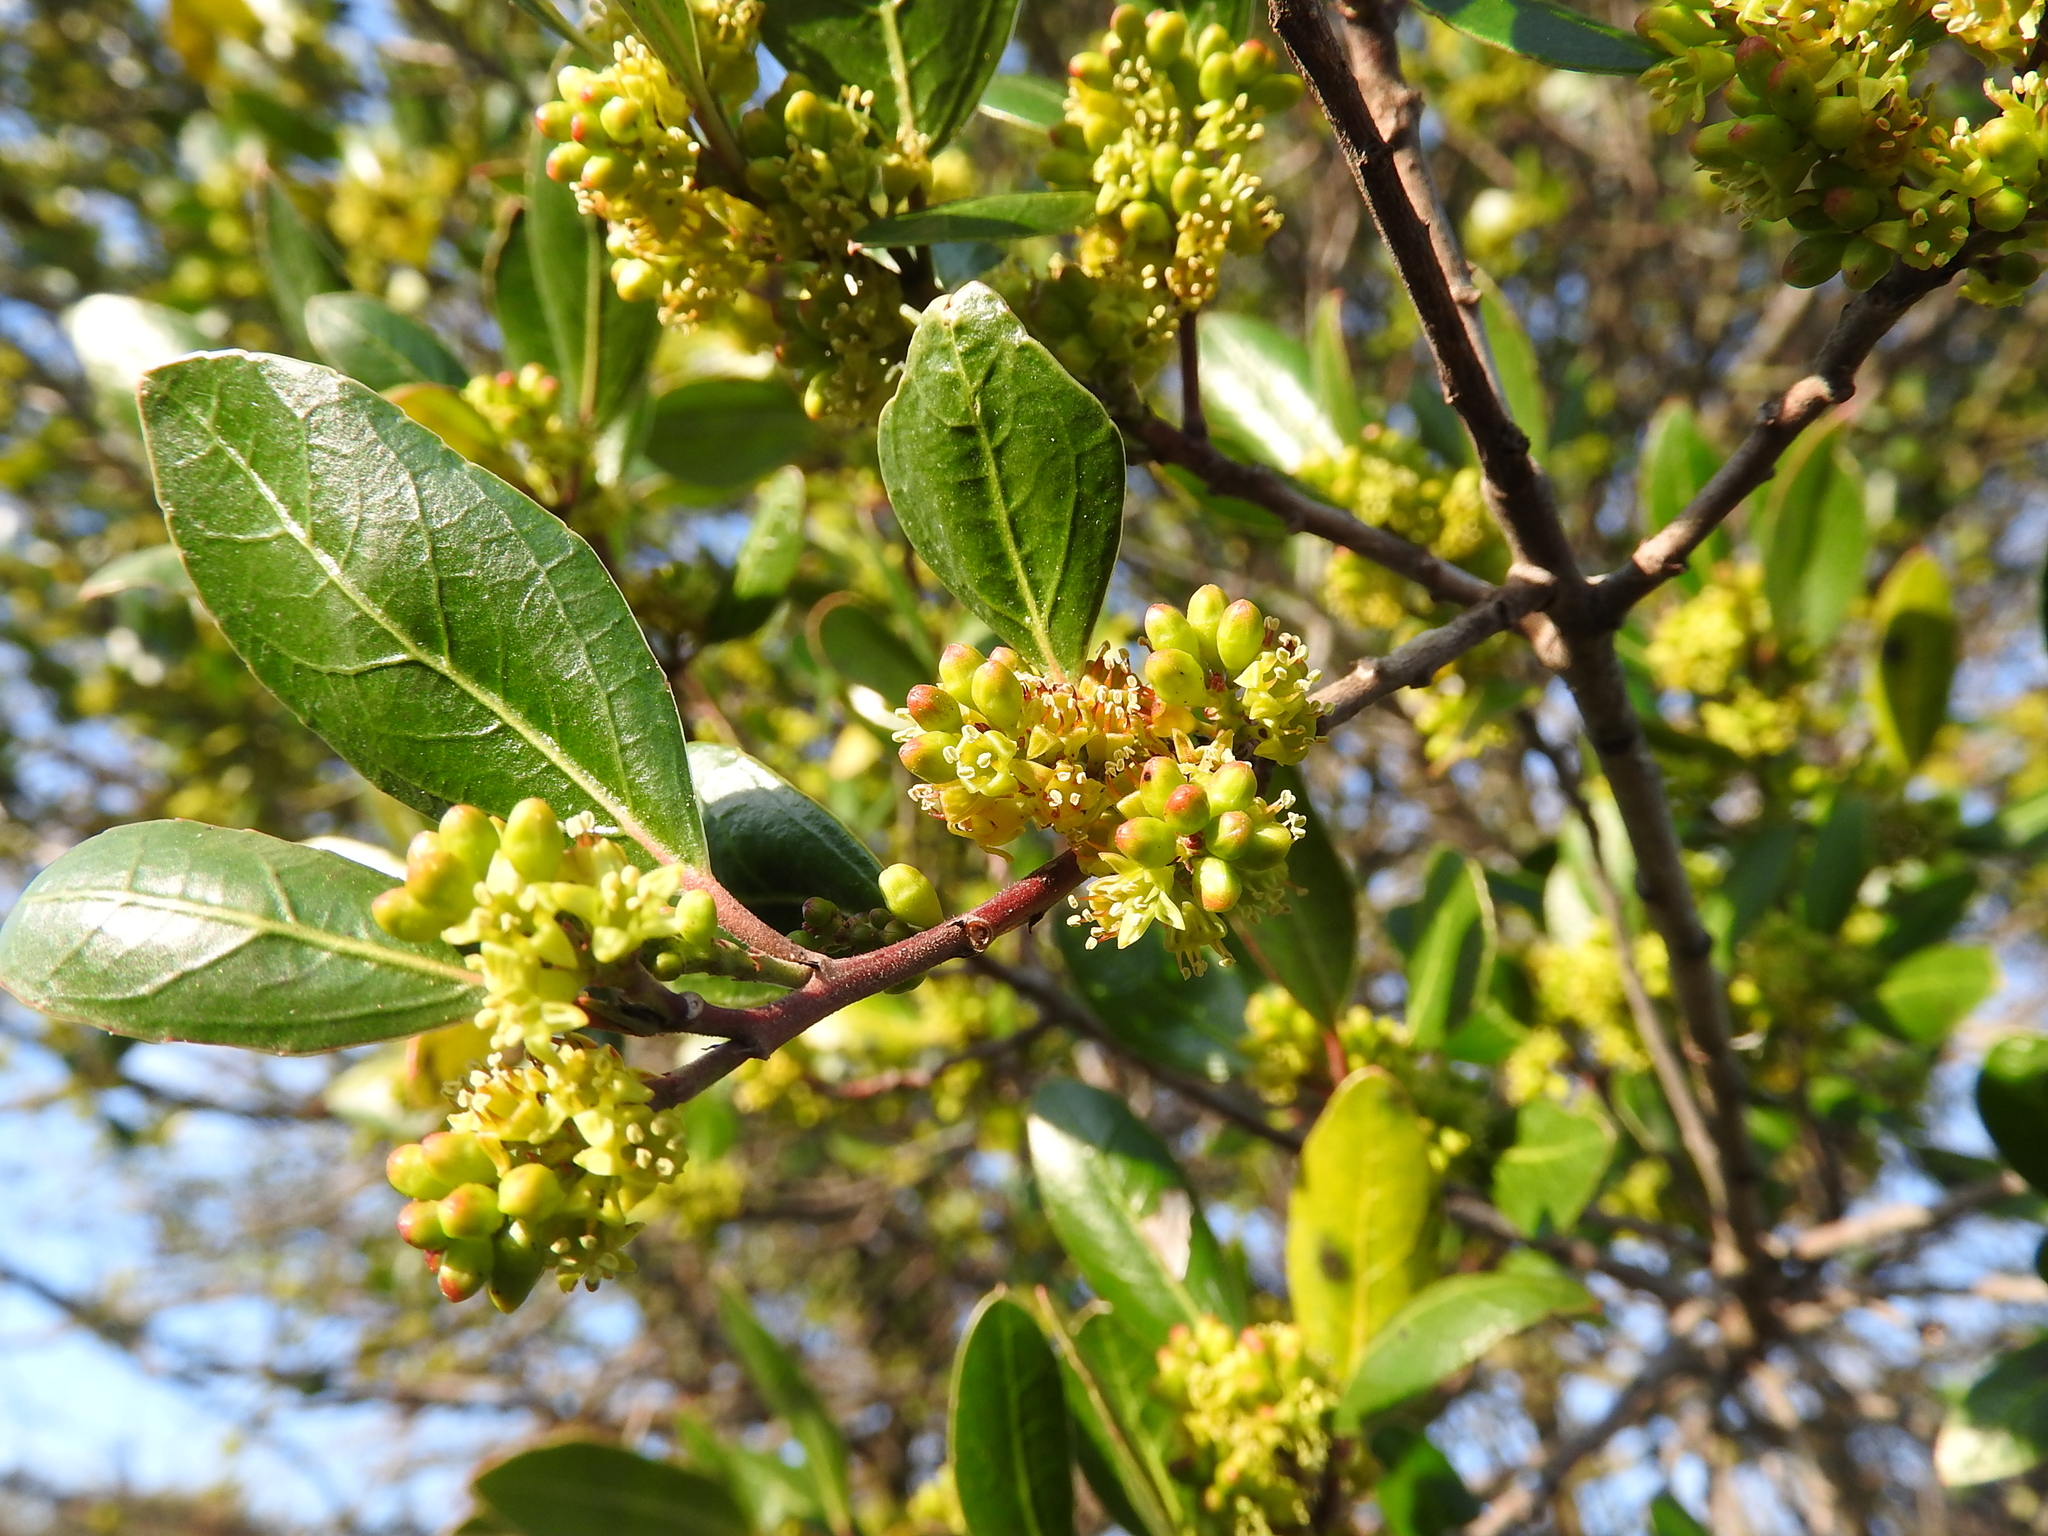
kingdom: Plantae
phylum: Tracheophyta
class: Magnoliopsida
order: Rosales
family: Rhamnaceae
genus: Rhamnus
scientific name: Rhamnus alaternus
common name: Mediterranean buckthorn
